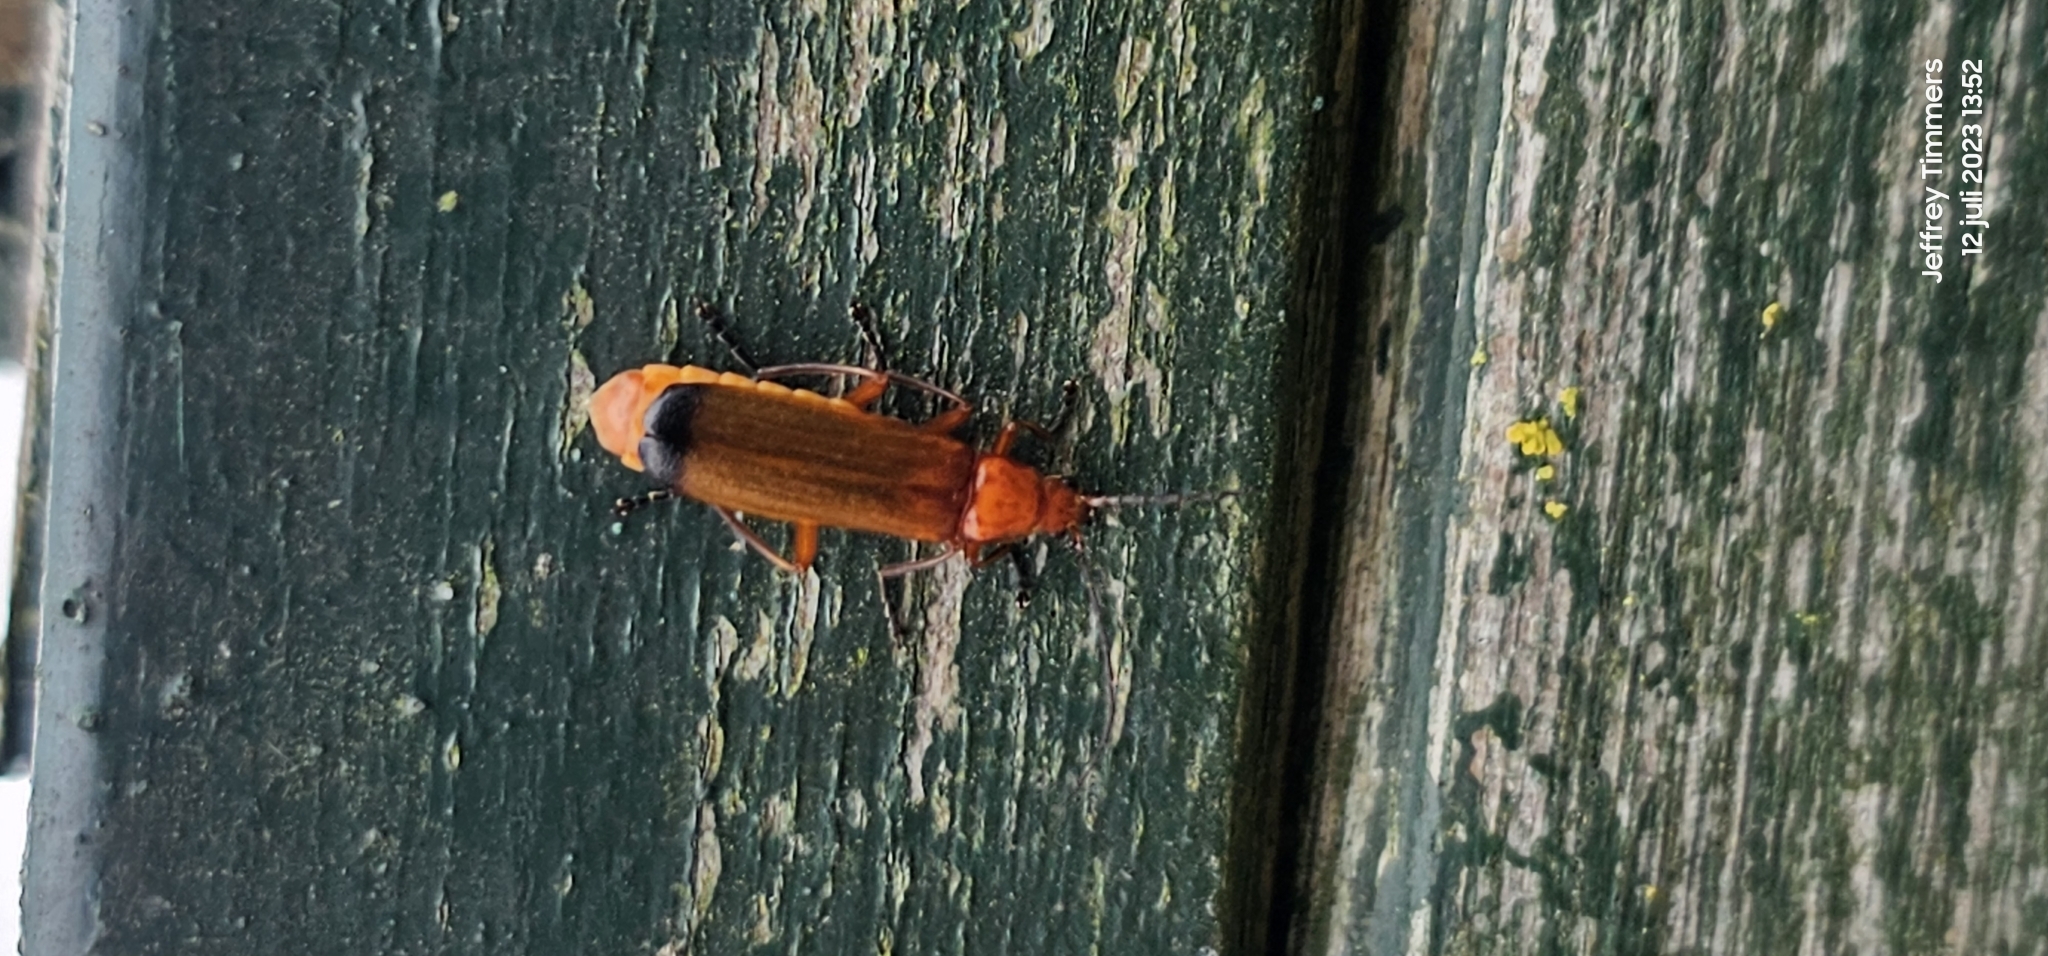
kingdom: Animalia
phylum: Arthropoda
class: Insecta
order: Coleoptera
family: Cantharidae
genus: Rhagonycha
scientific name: Rhagonycha fulva
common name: Common red soldier beetle
